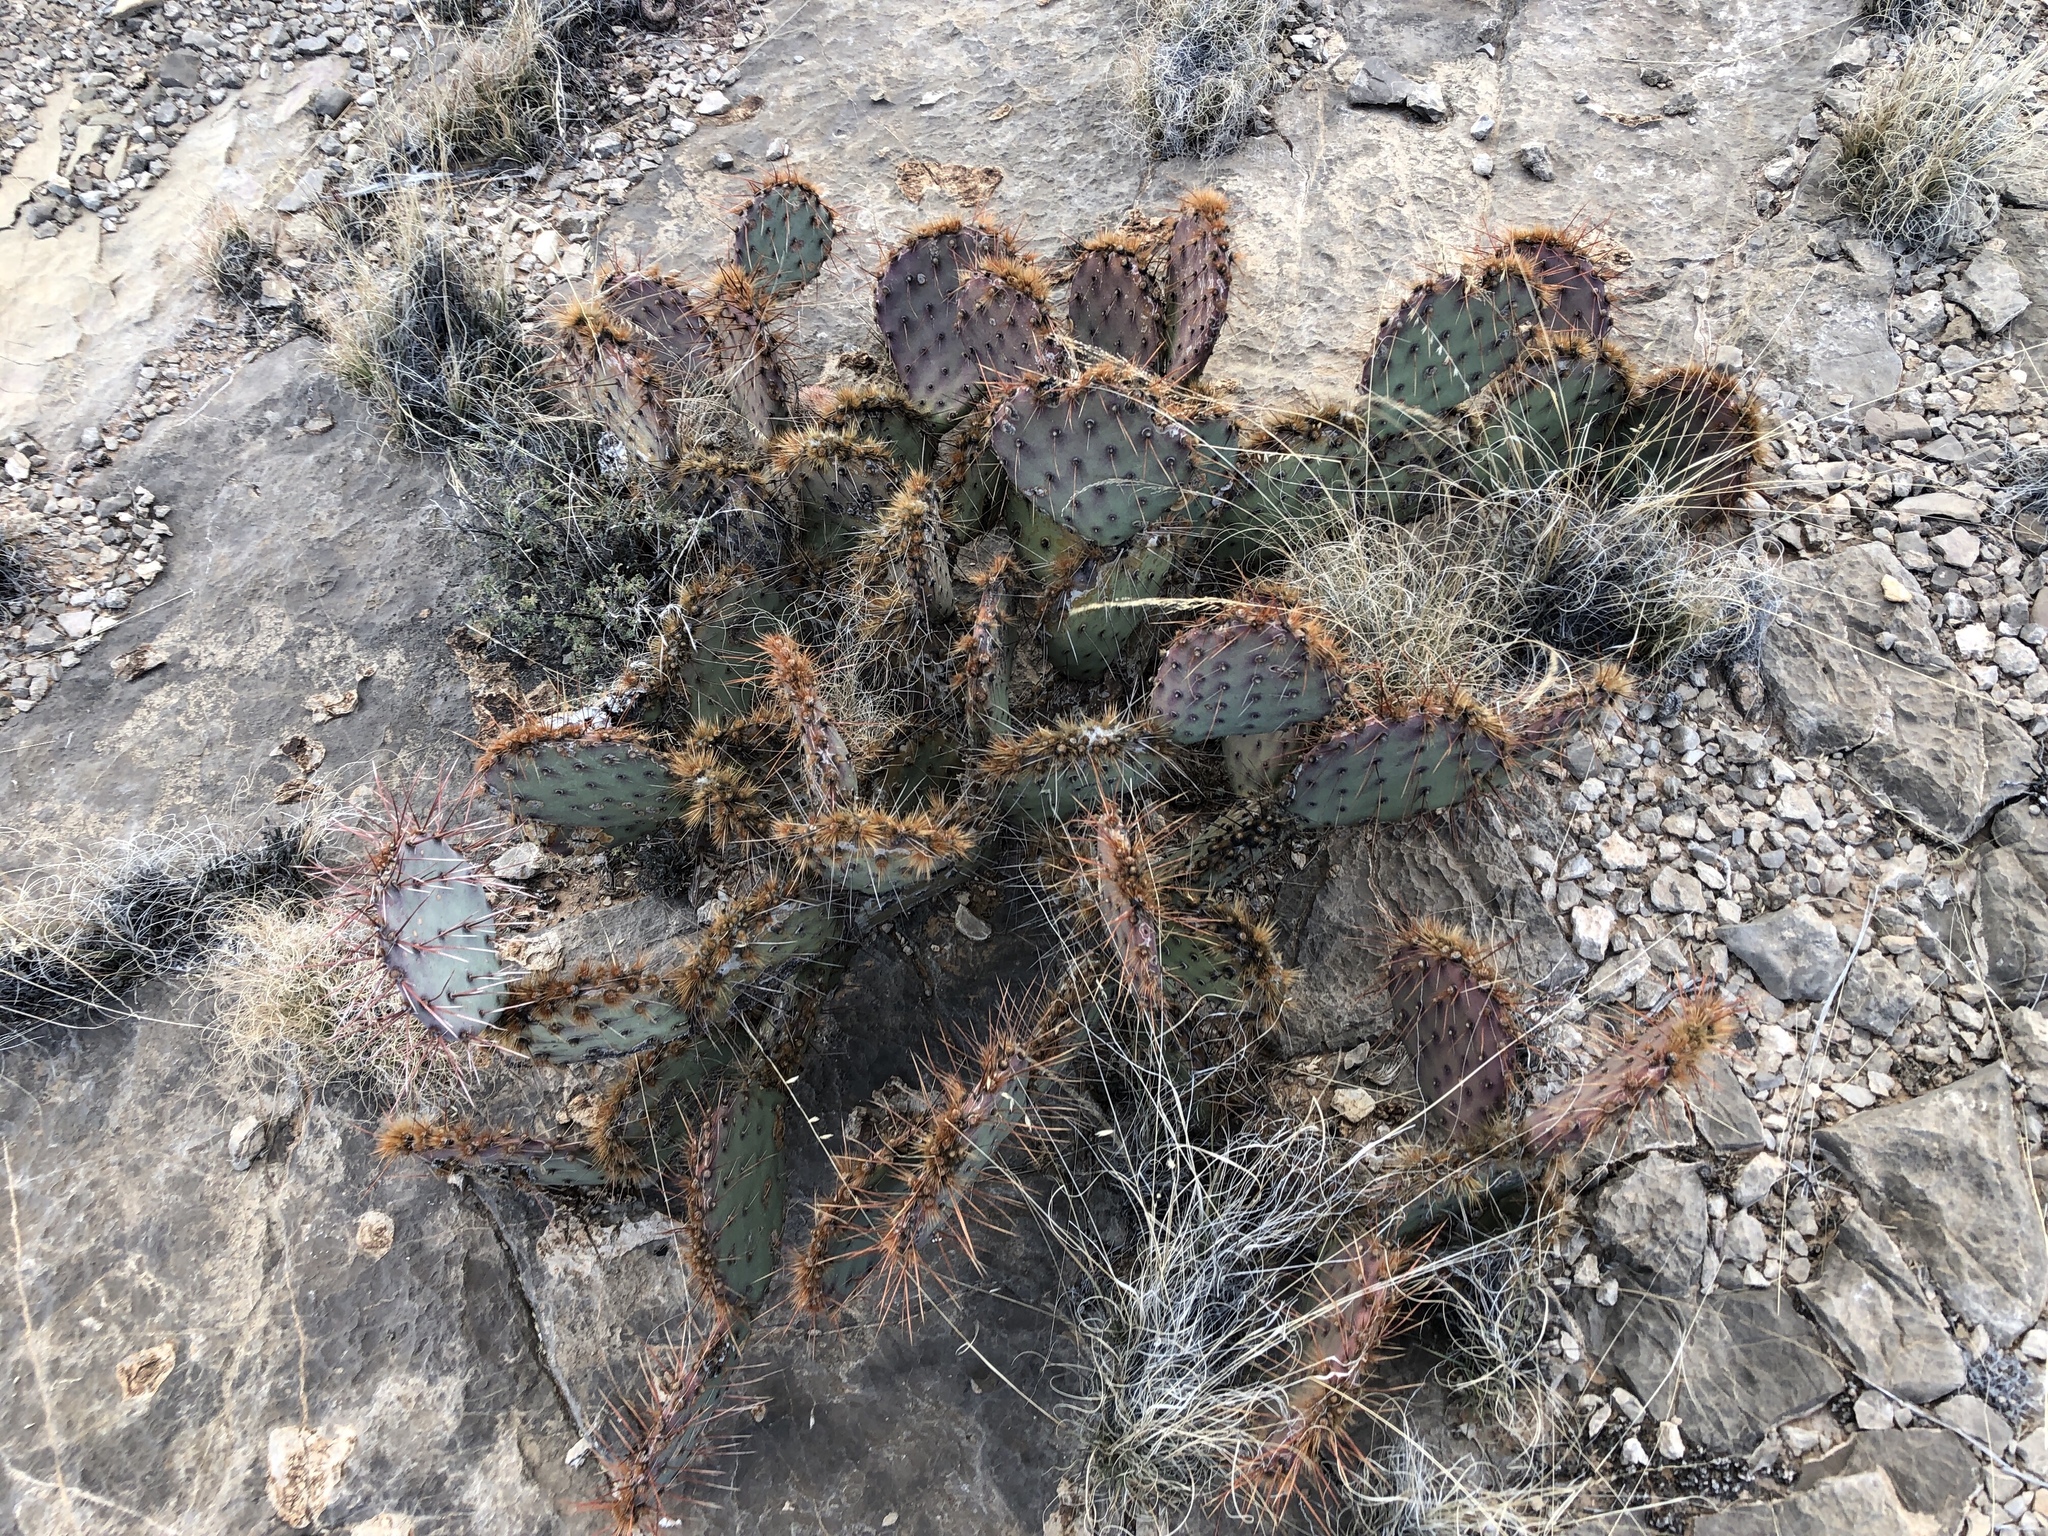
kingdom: Plantae
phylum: Tracheophyta
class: Magnoliopsida
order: Caryophyllales
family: Cactaceae
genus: Opuntia
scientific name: Opuntia phaeacantha
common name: New mexico prickly-pear
